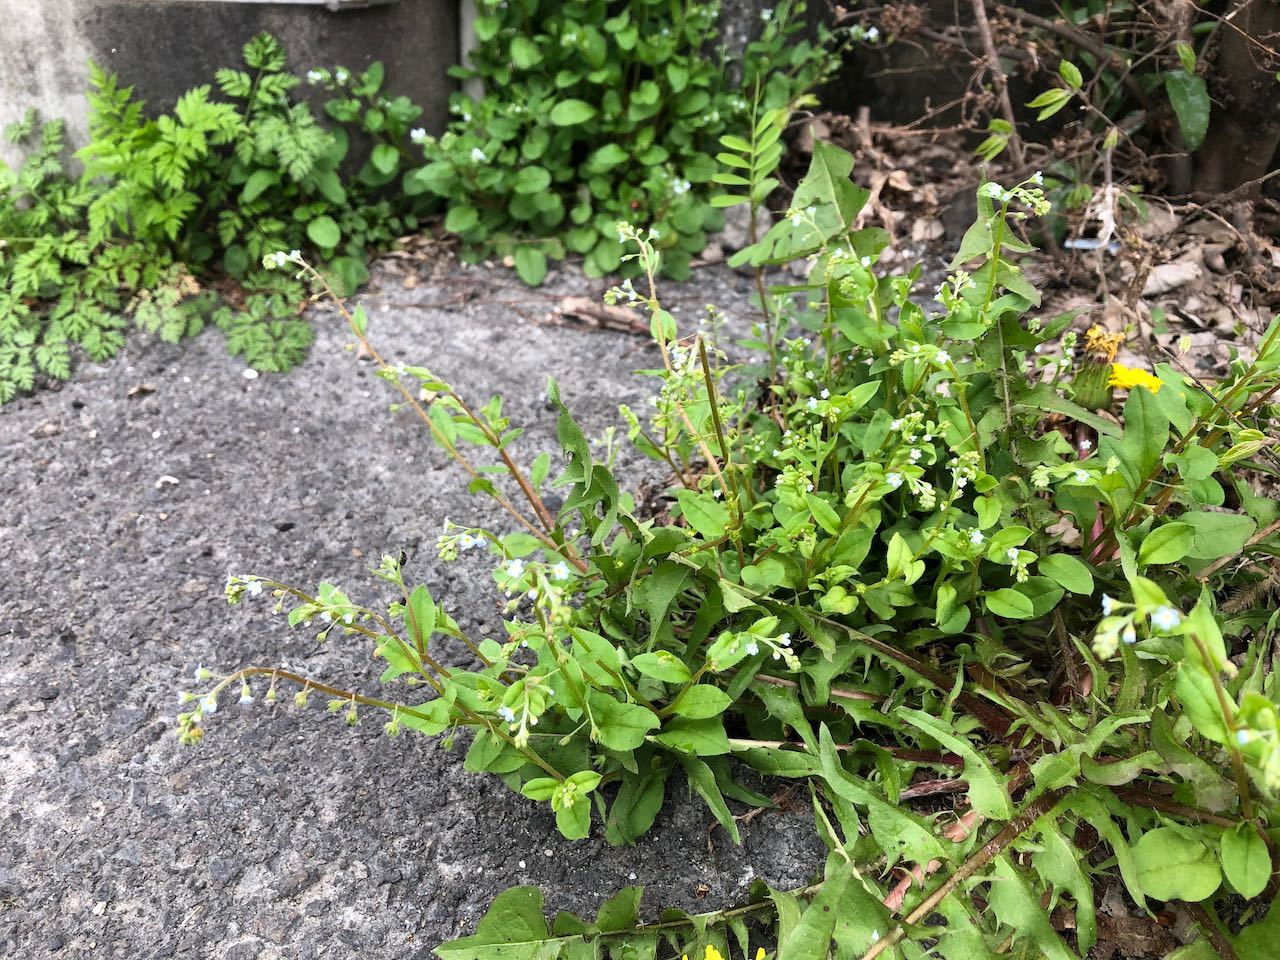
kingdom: Plantae
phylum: Tracheophyta
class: Magnoliopsida
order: Boraginales
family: Boraginaceae
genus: Trigonotis
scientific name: Trigonotis peduncularis
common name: Cucumber herb
